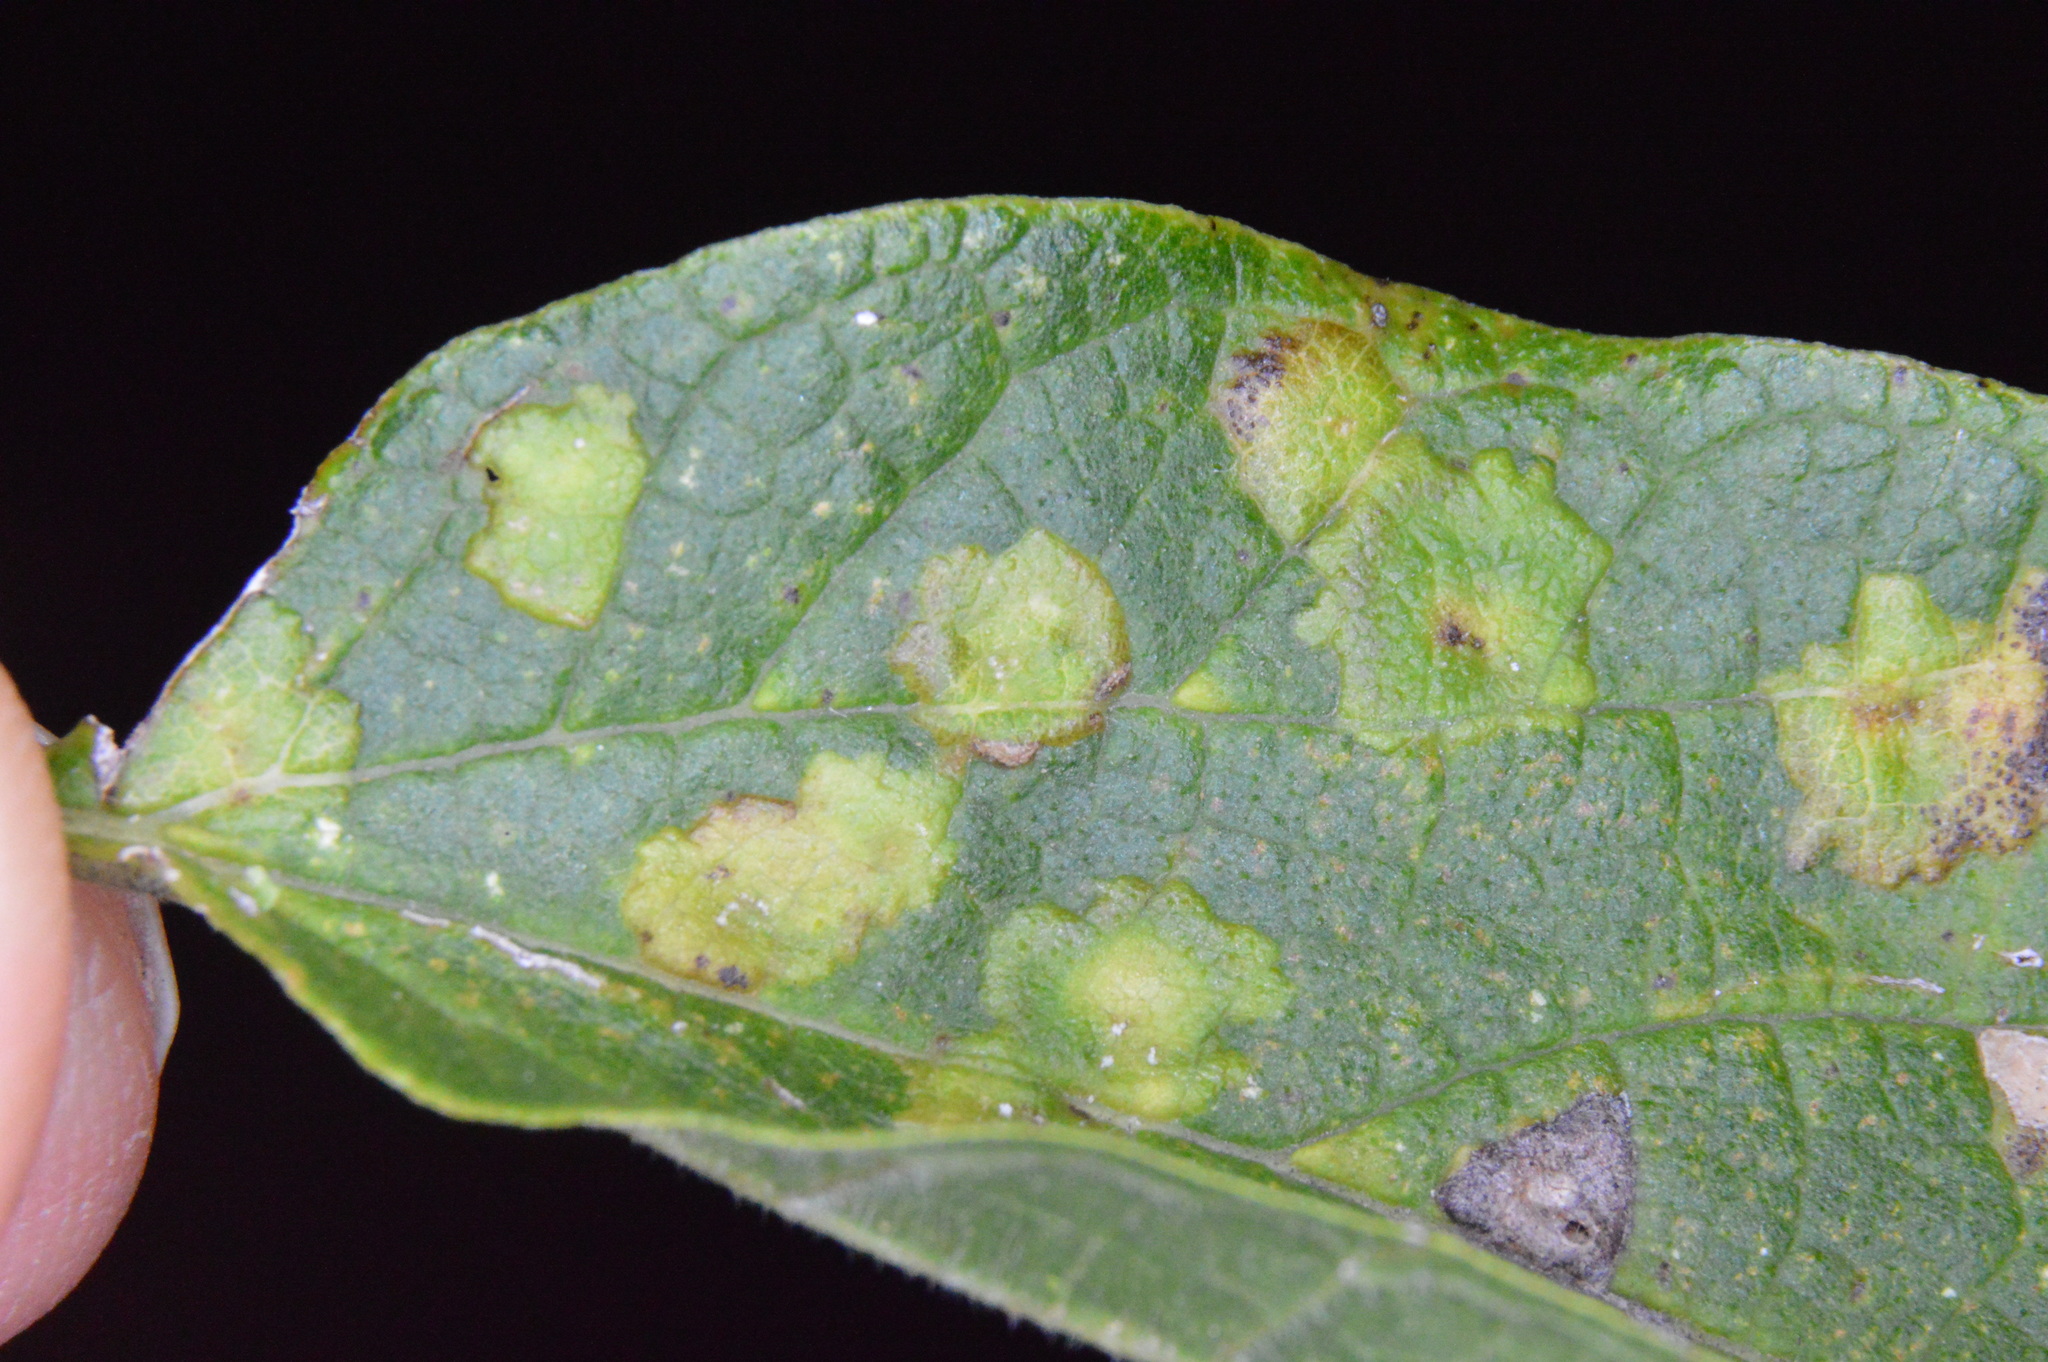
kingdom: Animalia
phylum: Arthropoda
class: Insecta
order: Hemiptera
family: Aphalaridae
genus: Pachypsylla
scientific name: Pachypsylla celtidisvesicula
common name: Hackberry blister gall psyllid
